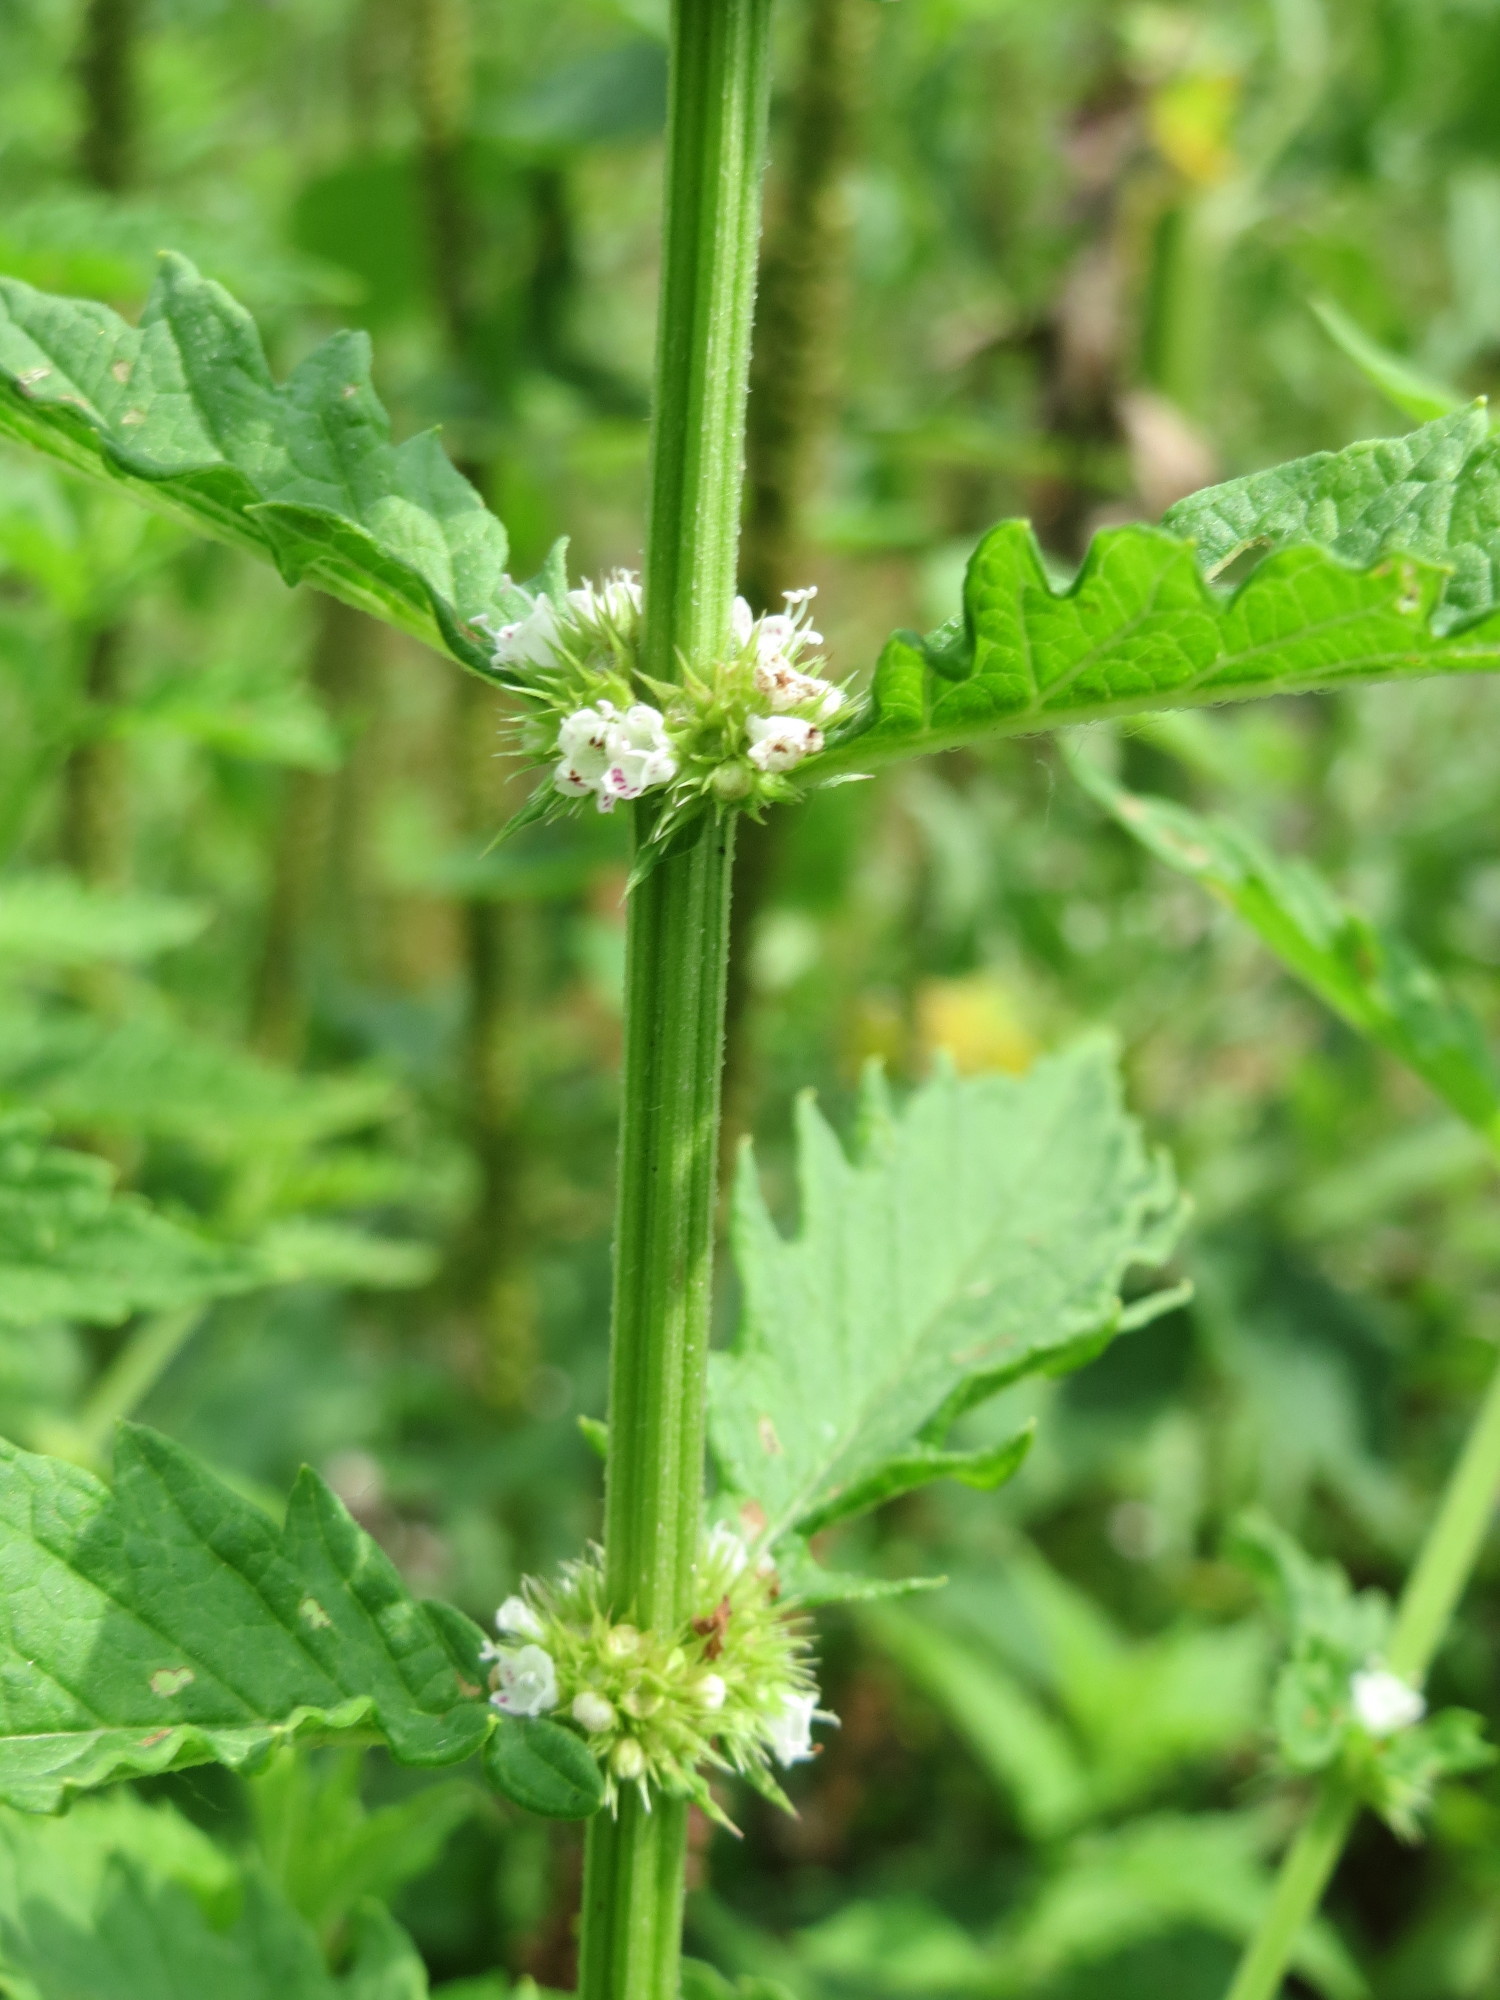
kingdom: Plantae
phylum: Tracheophyta
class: Magnoliopsida
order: Lamiales
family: Lamiaceae
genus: Lycopus
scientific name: Lycopus europaeus
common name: European bugleweed
